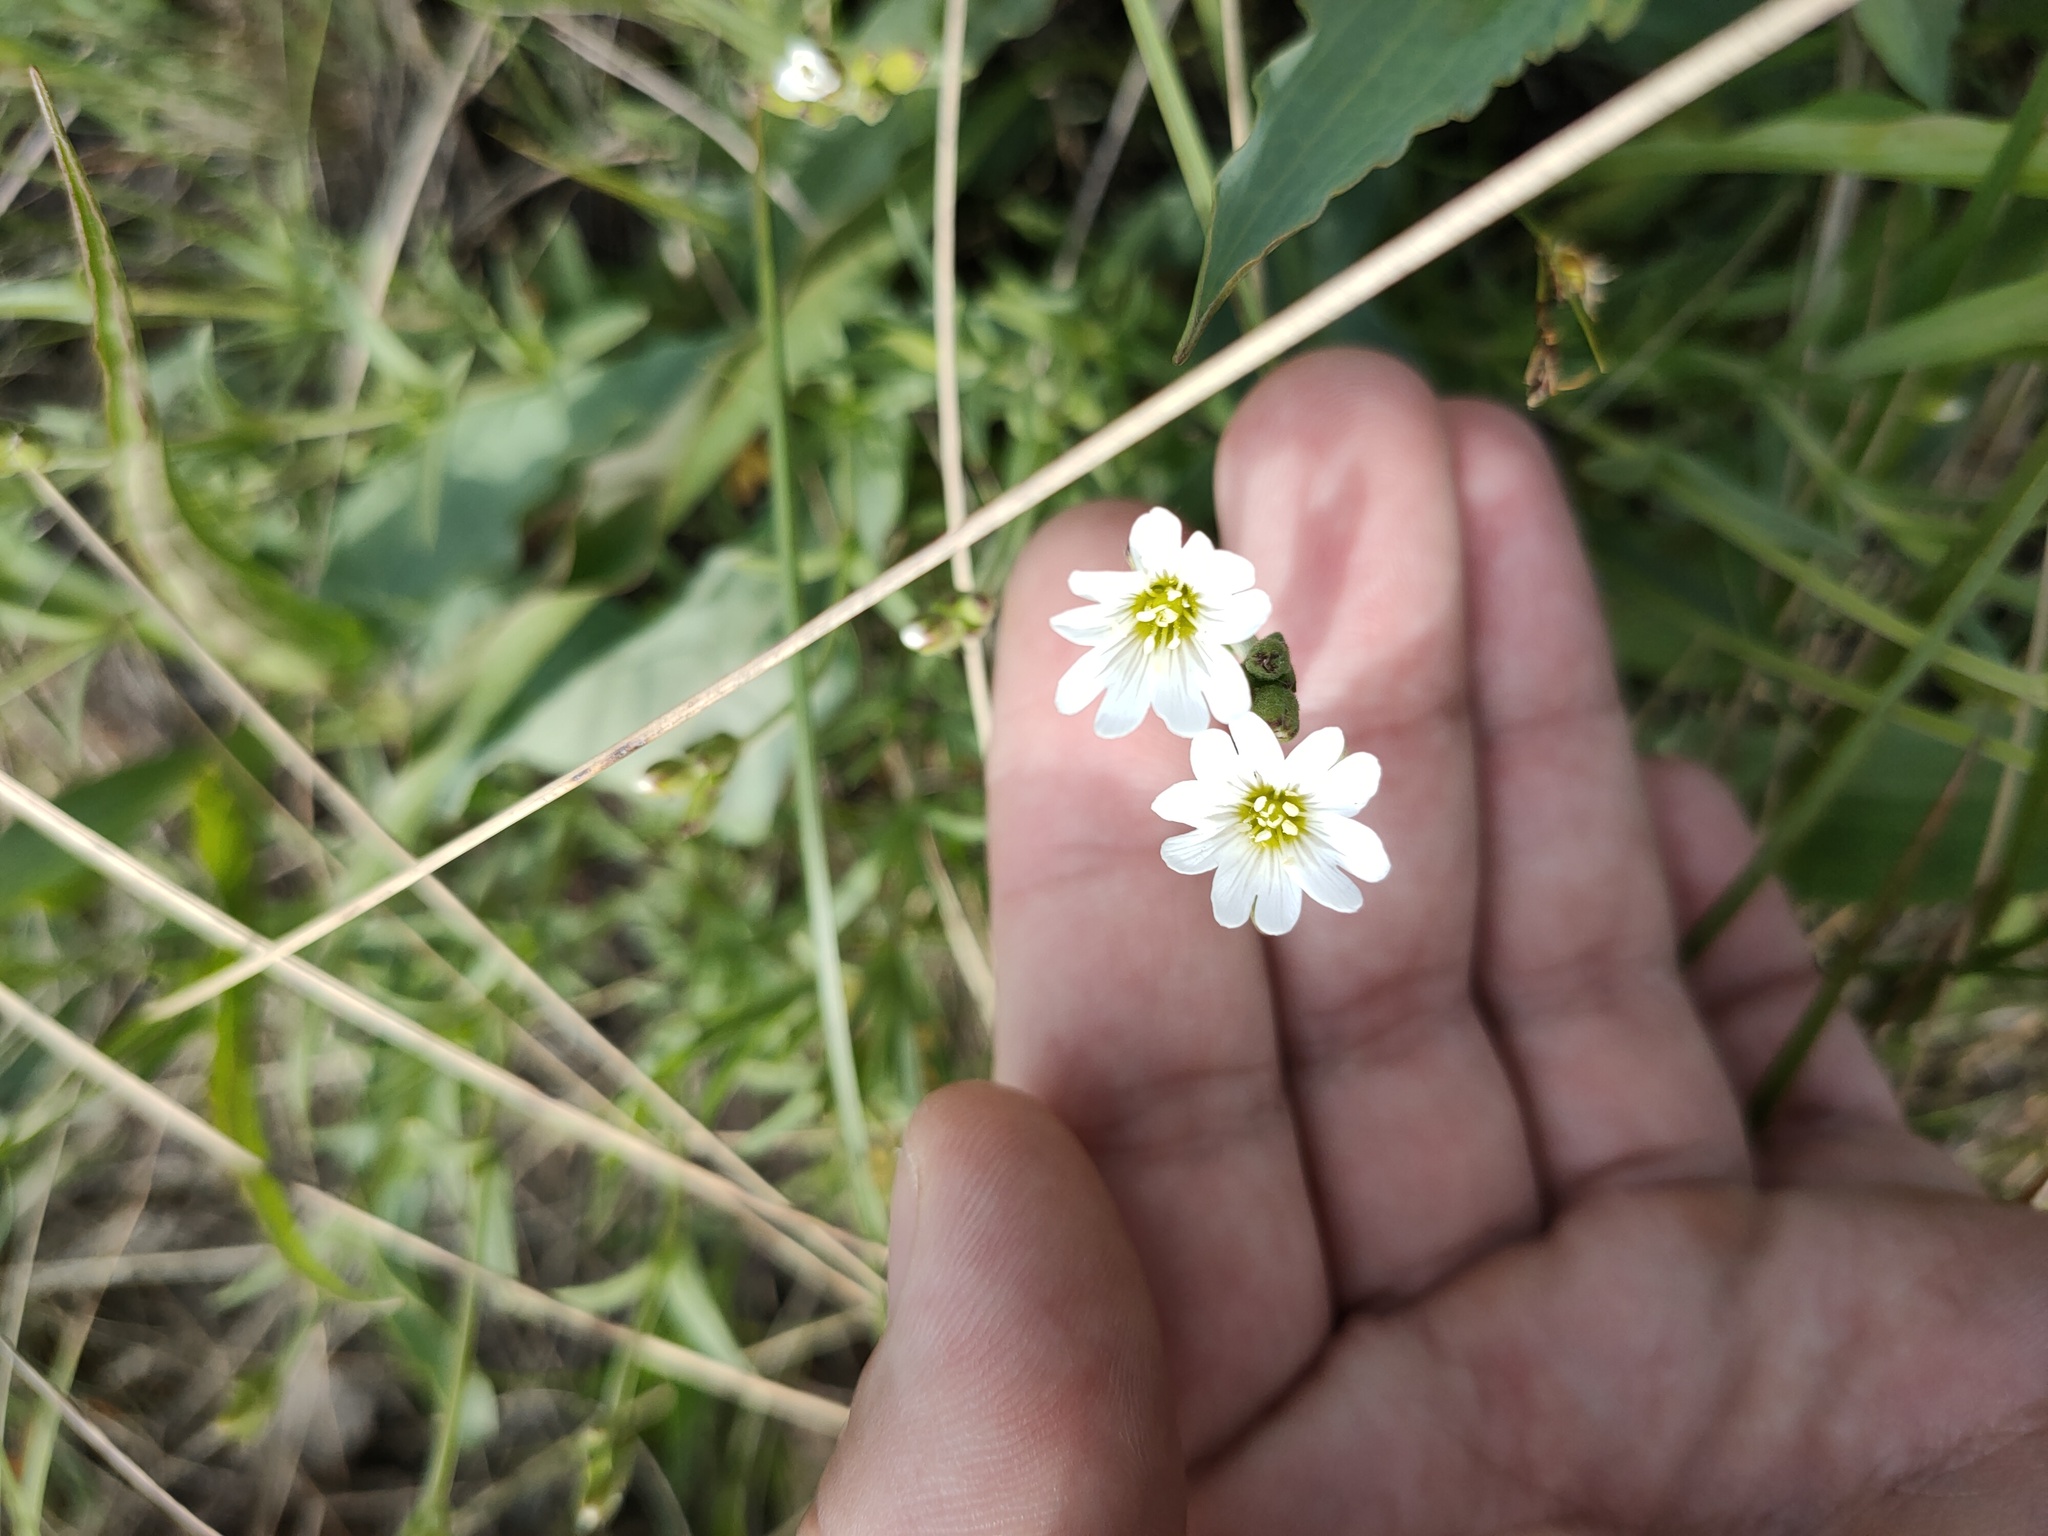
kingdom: Plantae
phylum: Tracheophyta
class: Magnoliopsida
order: Caryophyllales
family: Caryophyllaceae
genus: Cerastium
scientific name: Cerastium arvense
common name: Field mouse-ear
